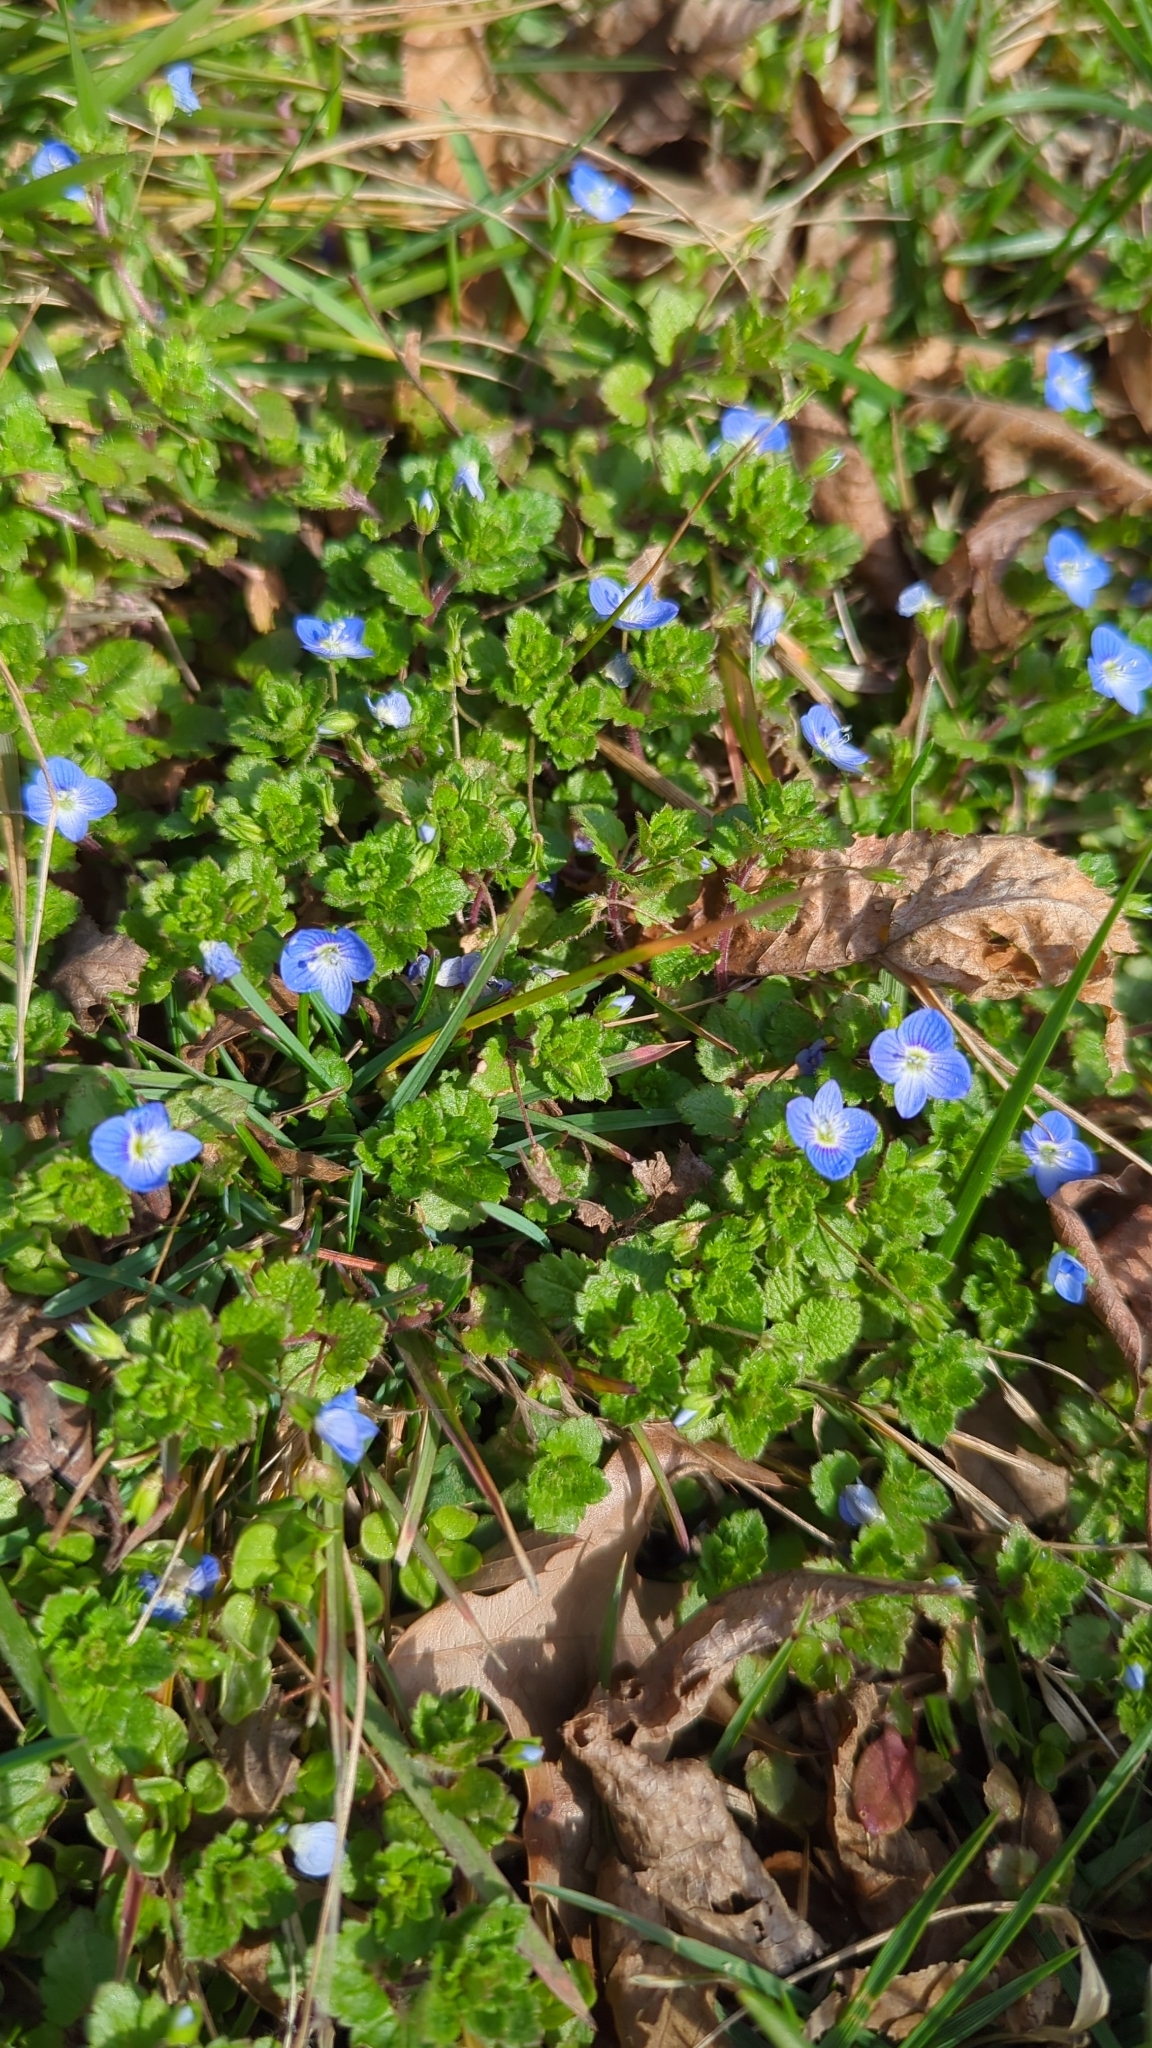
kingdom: Plantae
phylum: Tracheophyta
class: Magnoliopsida
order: Lamiales
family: Plantaginaceae
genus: Veronica
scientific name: Veronica persica
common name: Common field-speedwell
